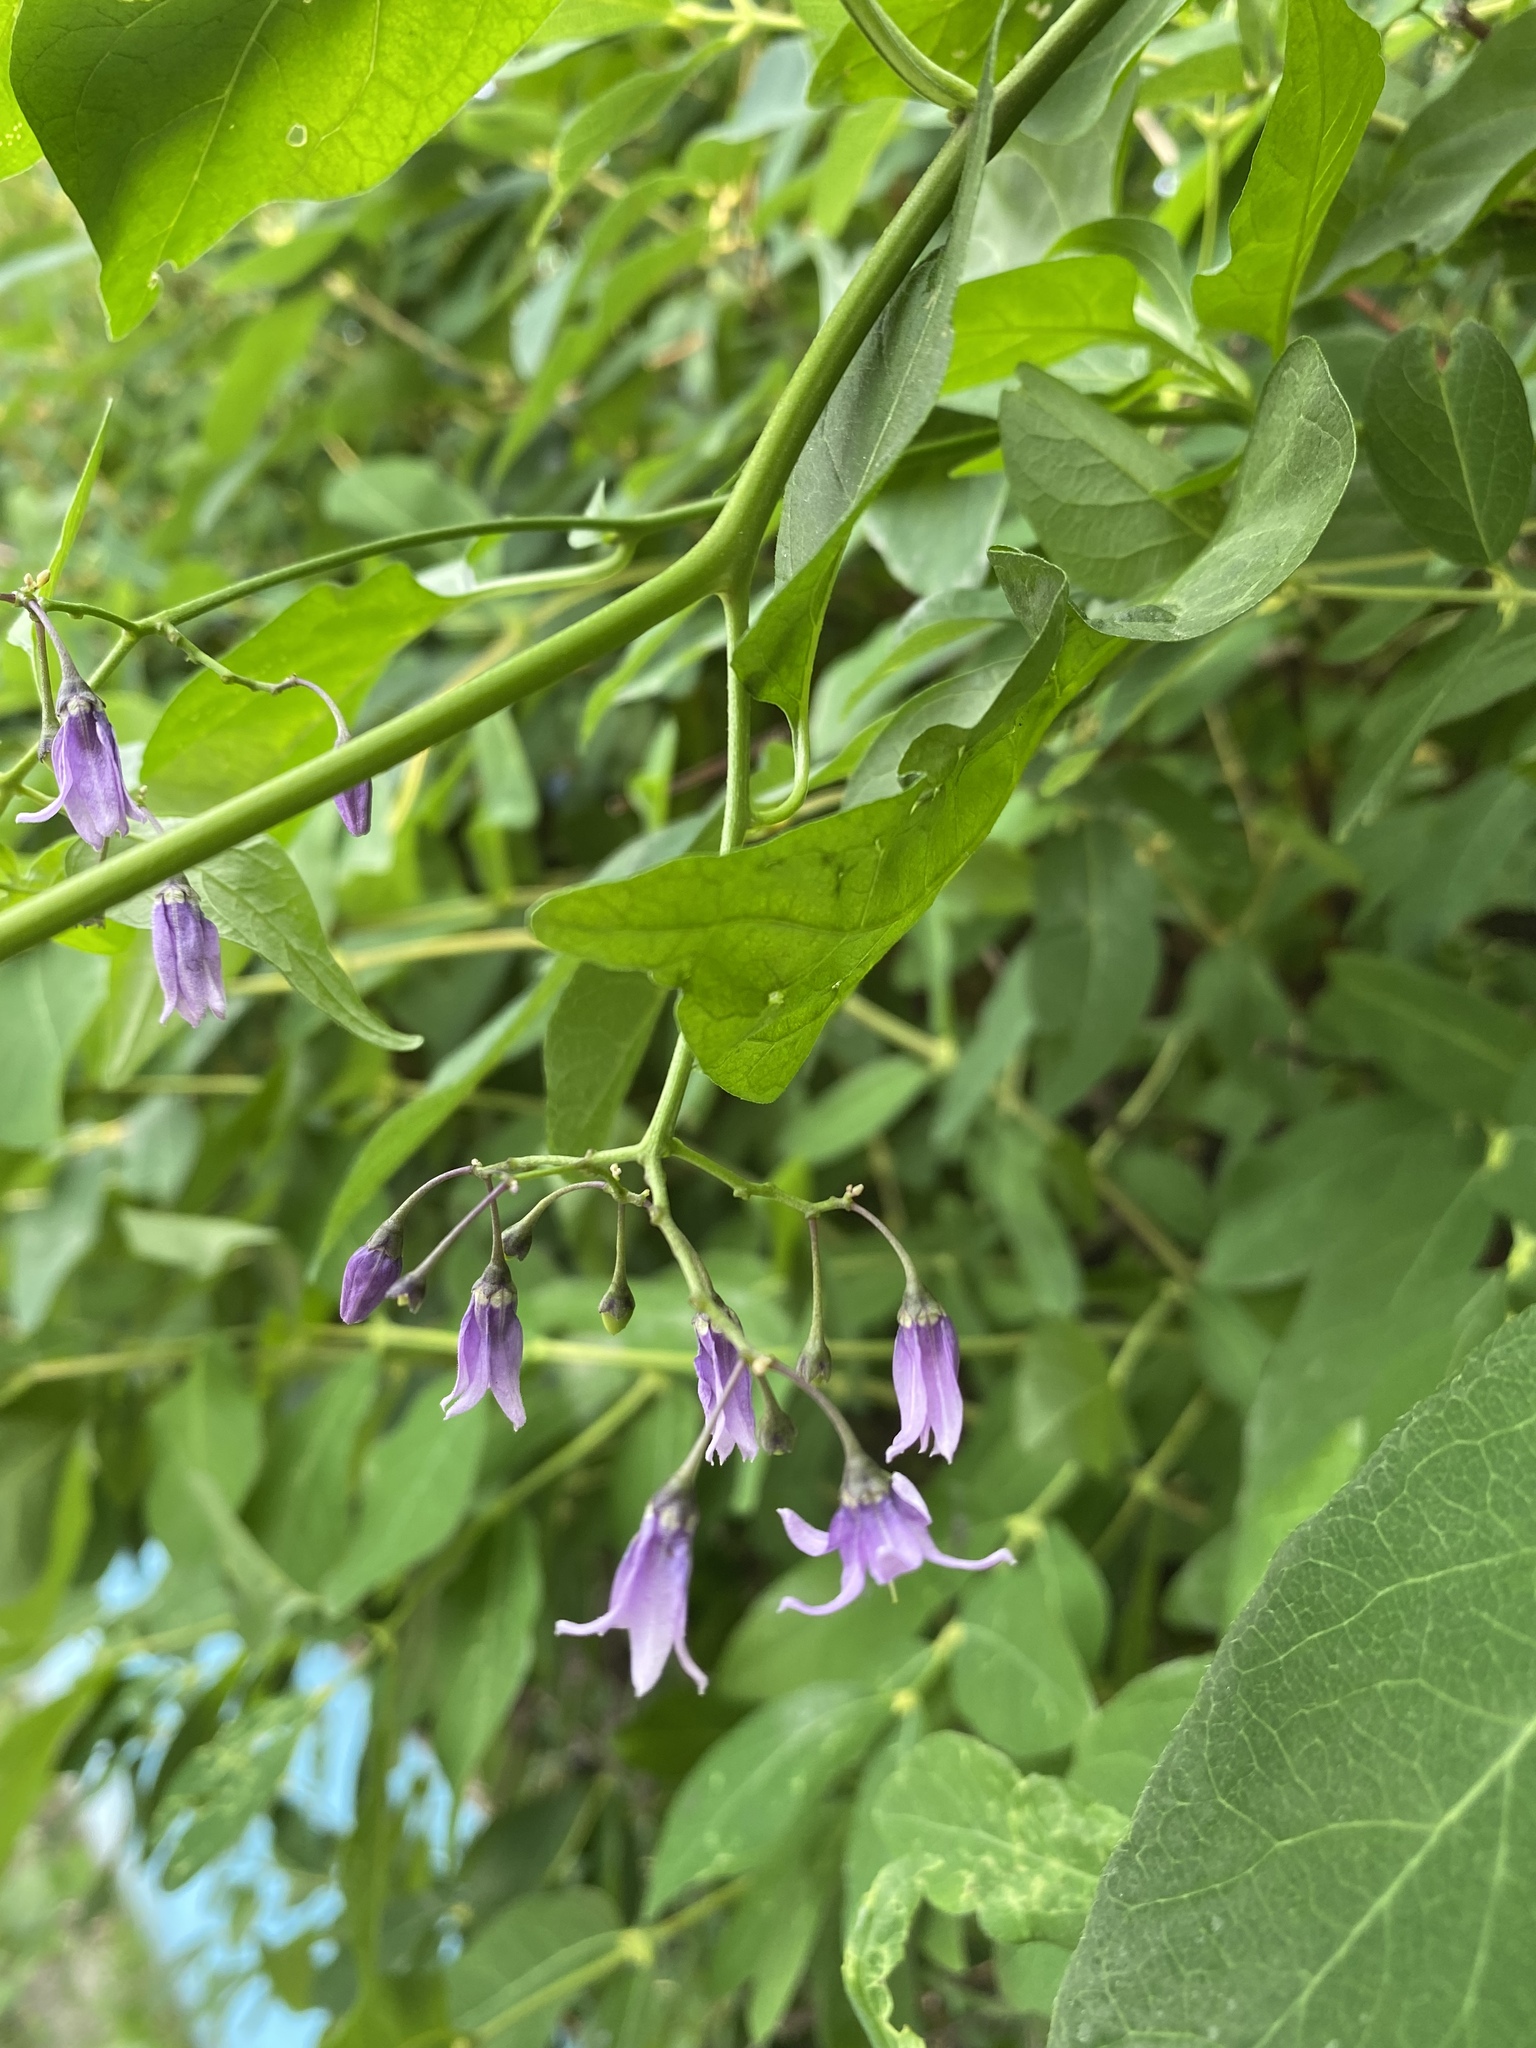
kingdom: Plantae
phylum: Tracheophyta
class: Magnoliopsida
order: Solanales
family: Solanaceae
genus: Solanum
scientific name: Solanum dulcamara
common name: Climbing nightshade
